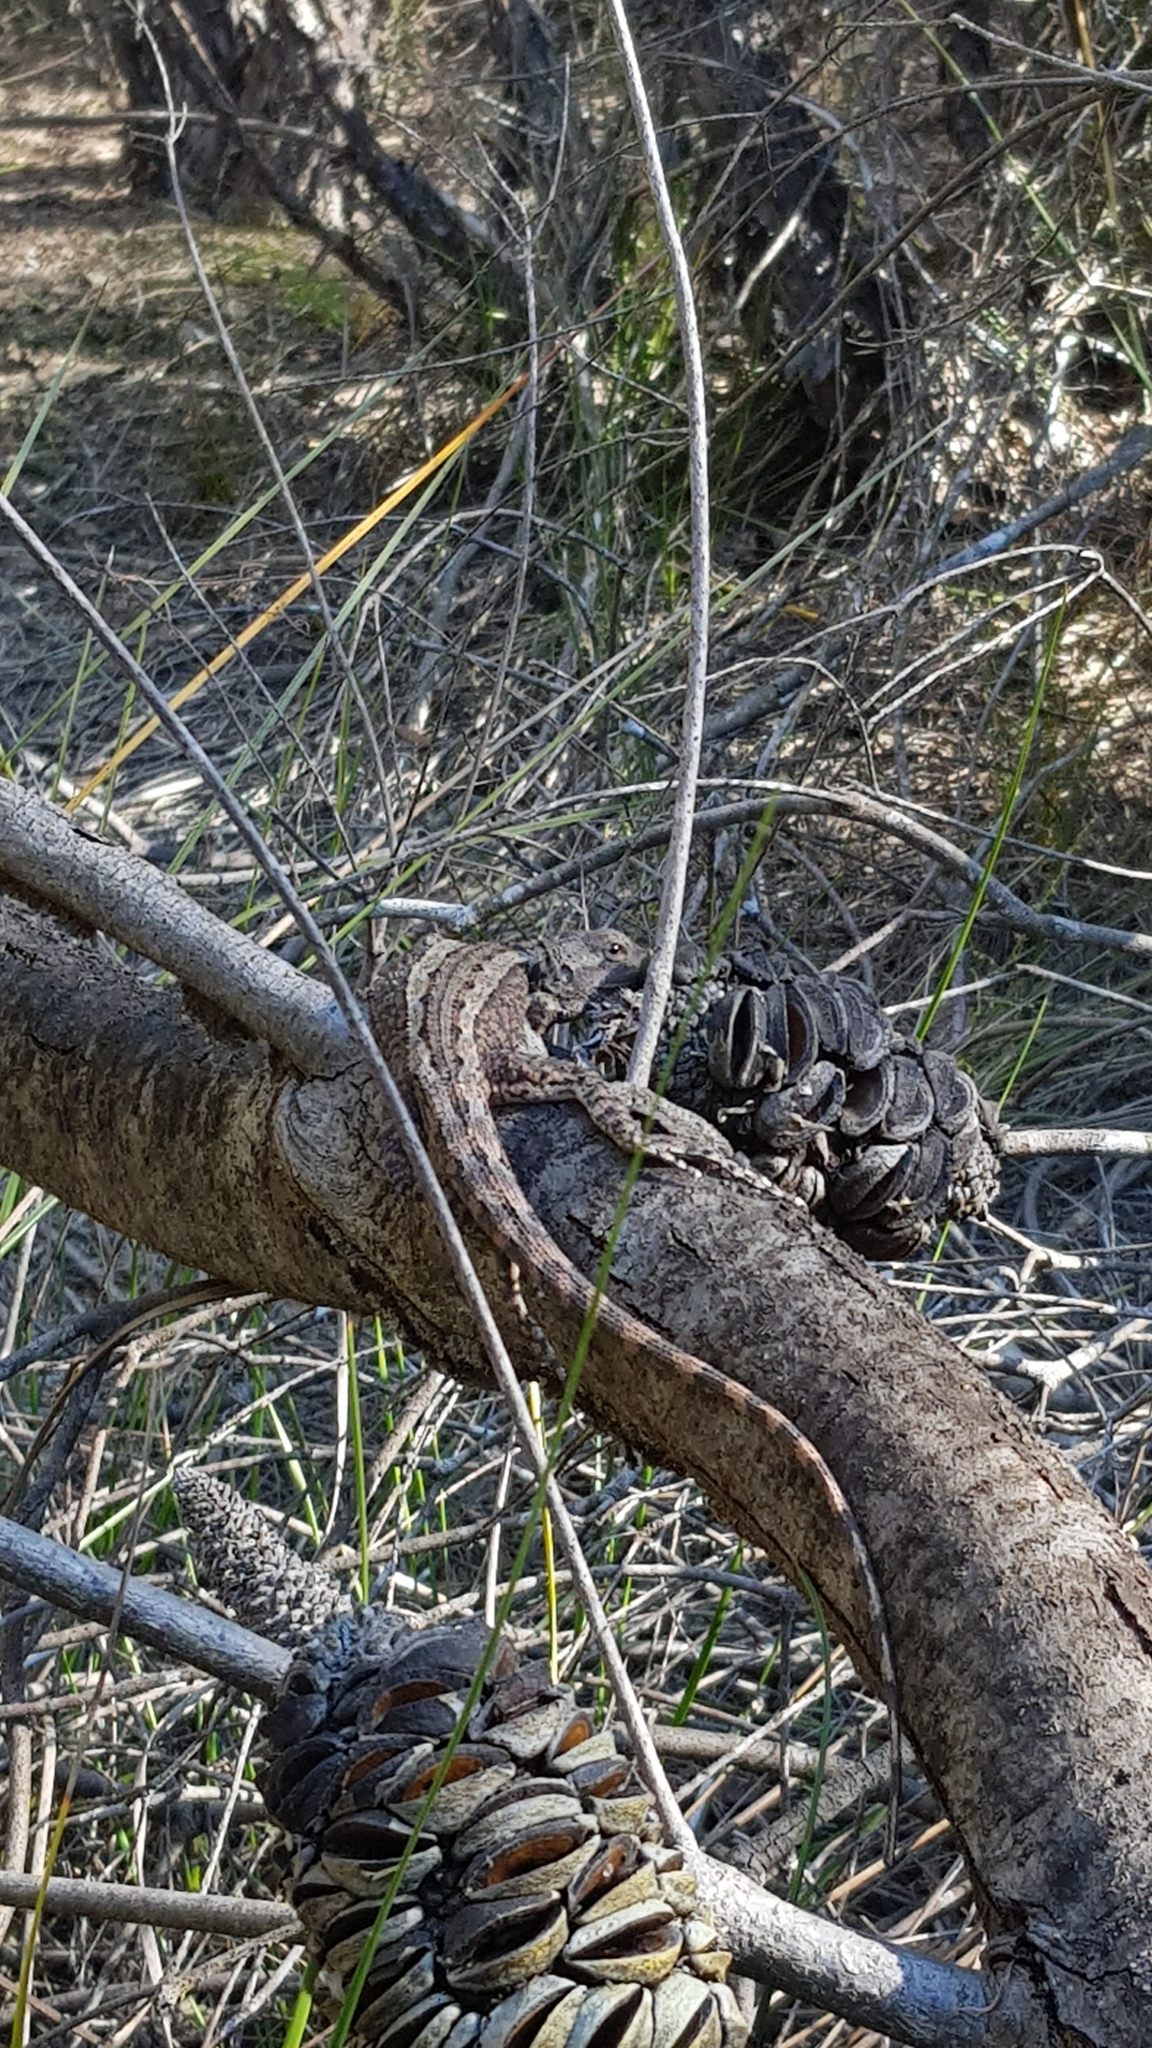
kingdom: Animalia
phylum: Chordata
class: Squamata
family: Agamidae
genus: Amphibolurus
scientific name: Amphibolurus muricatus
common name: Jacky lizard
